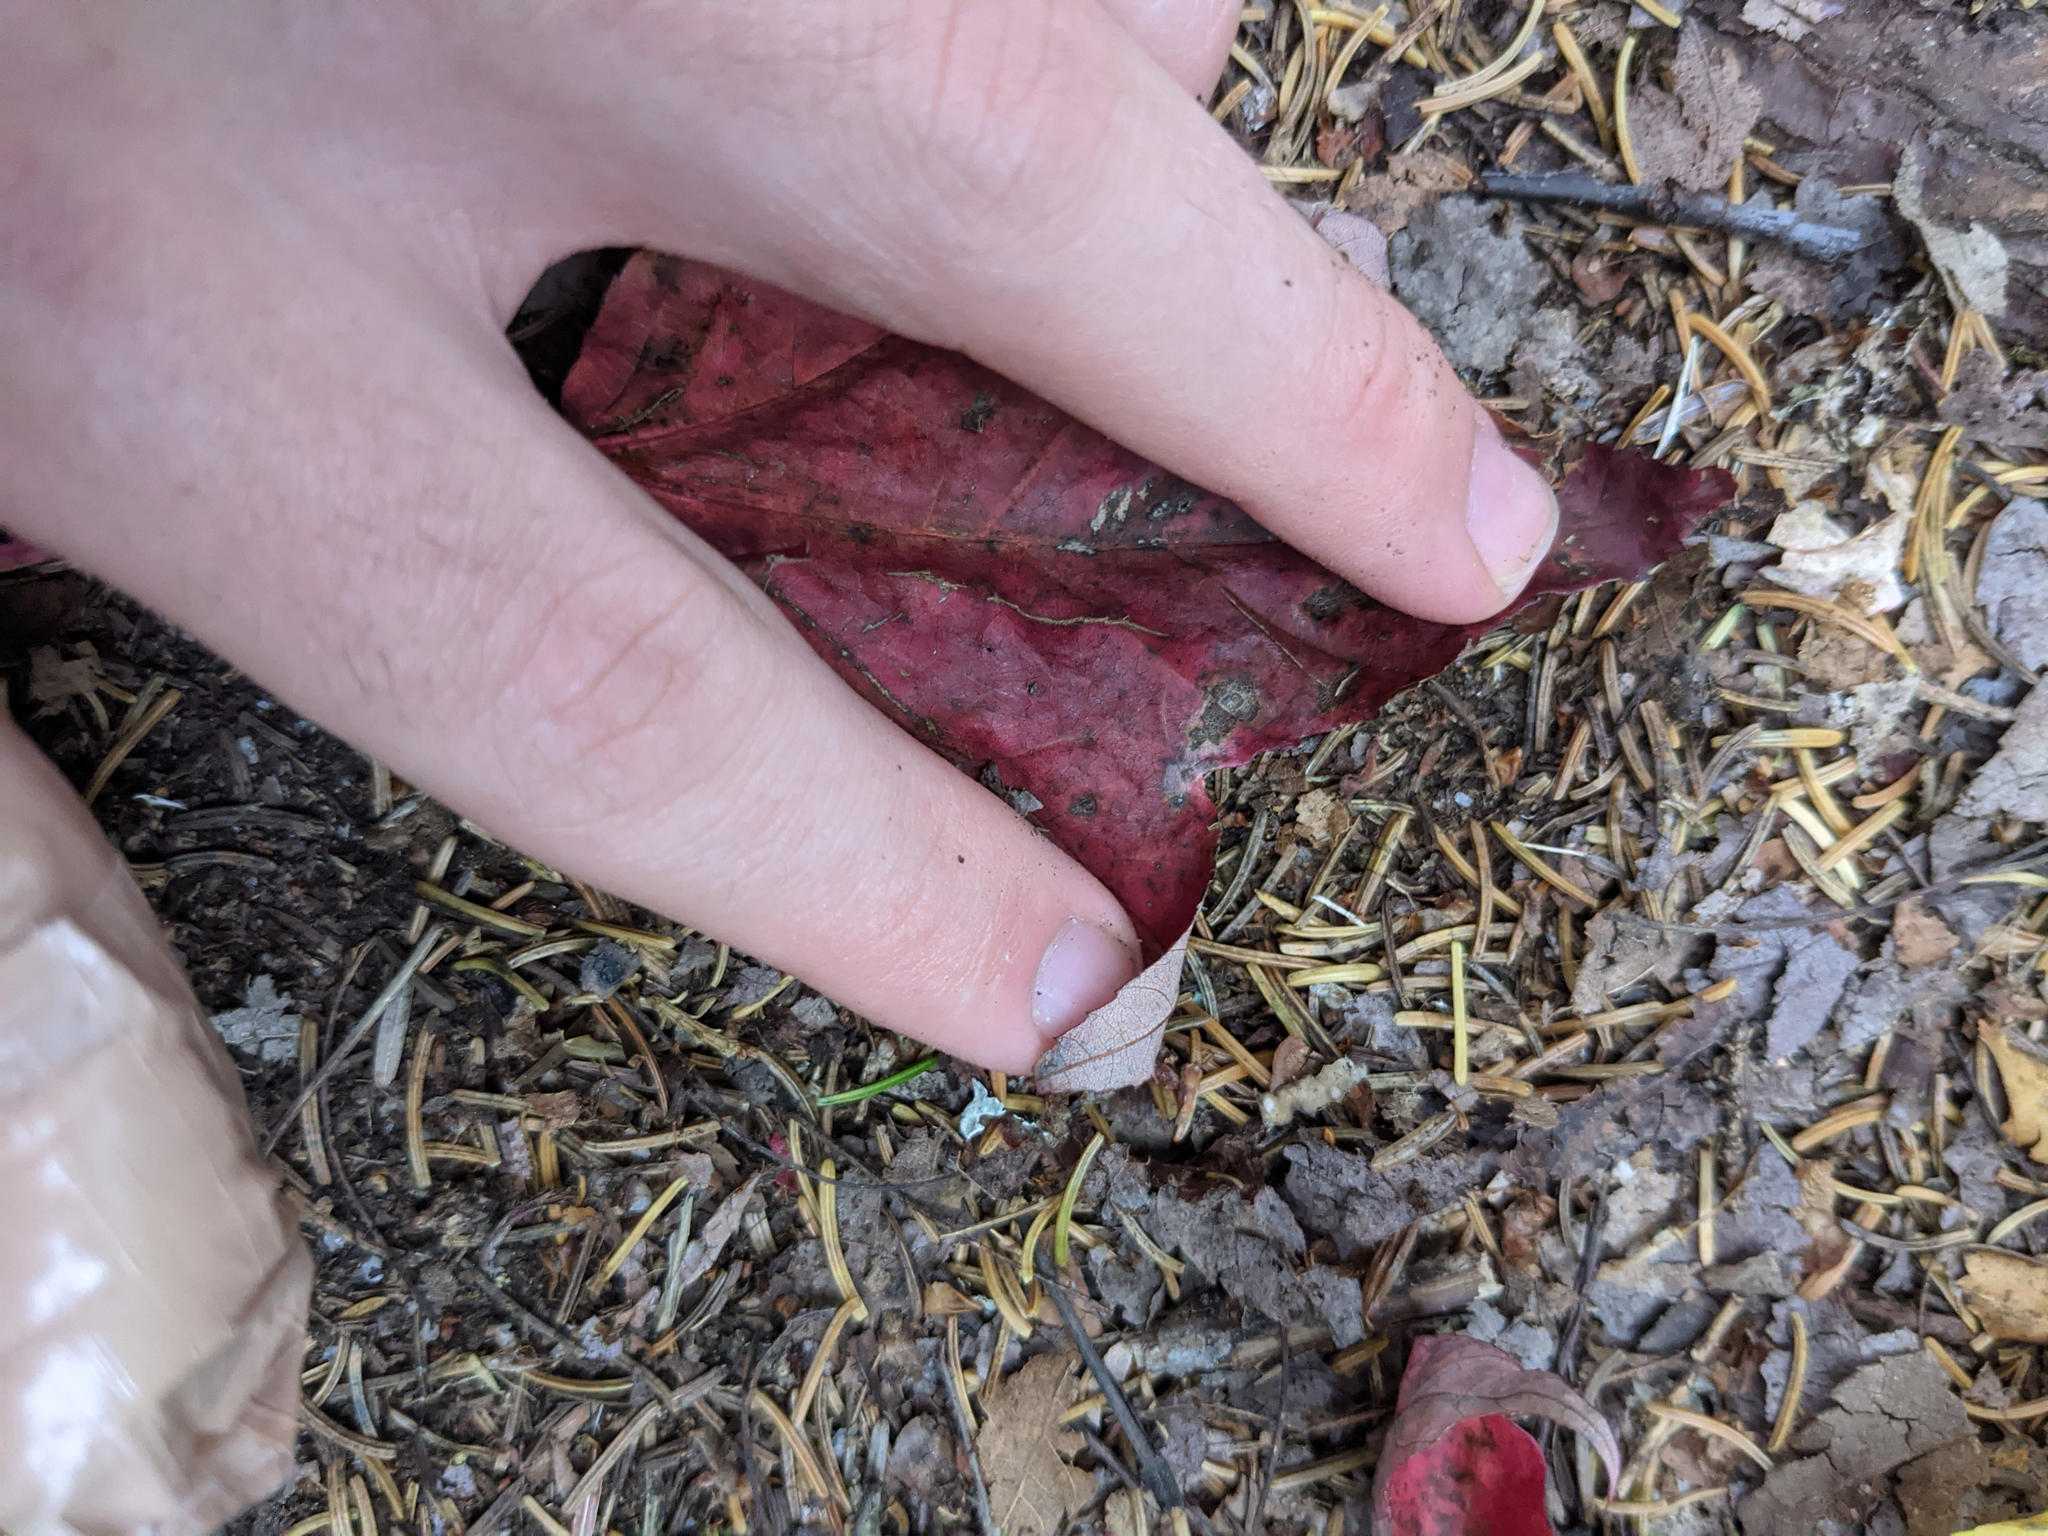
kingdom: Plantae
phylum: Tracheophyta
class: Magnoliopsida
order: Sapindales
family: Sapindaceae
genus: Acer
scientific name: Acer rubrum
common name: Red maple
